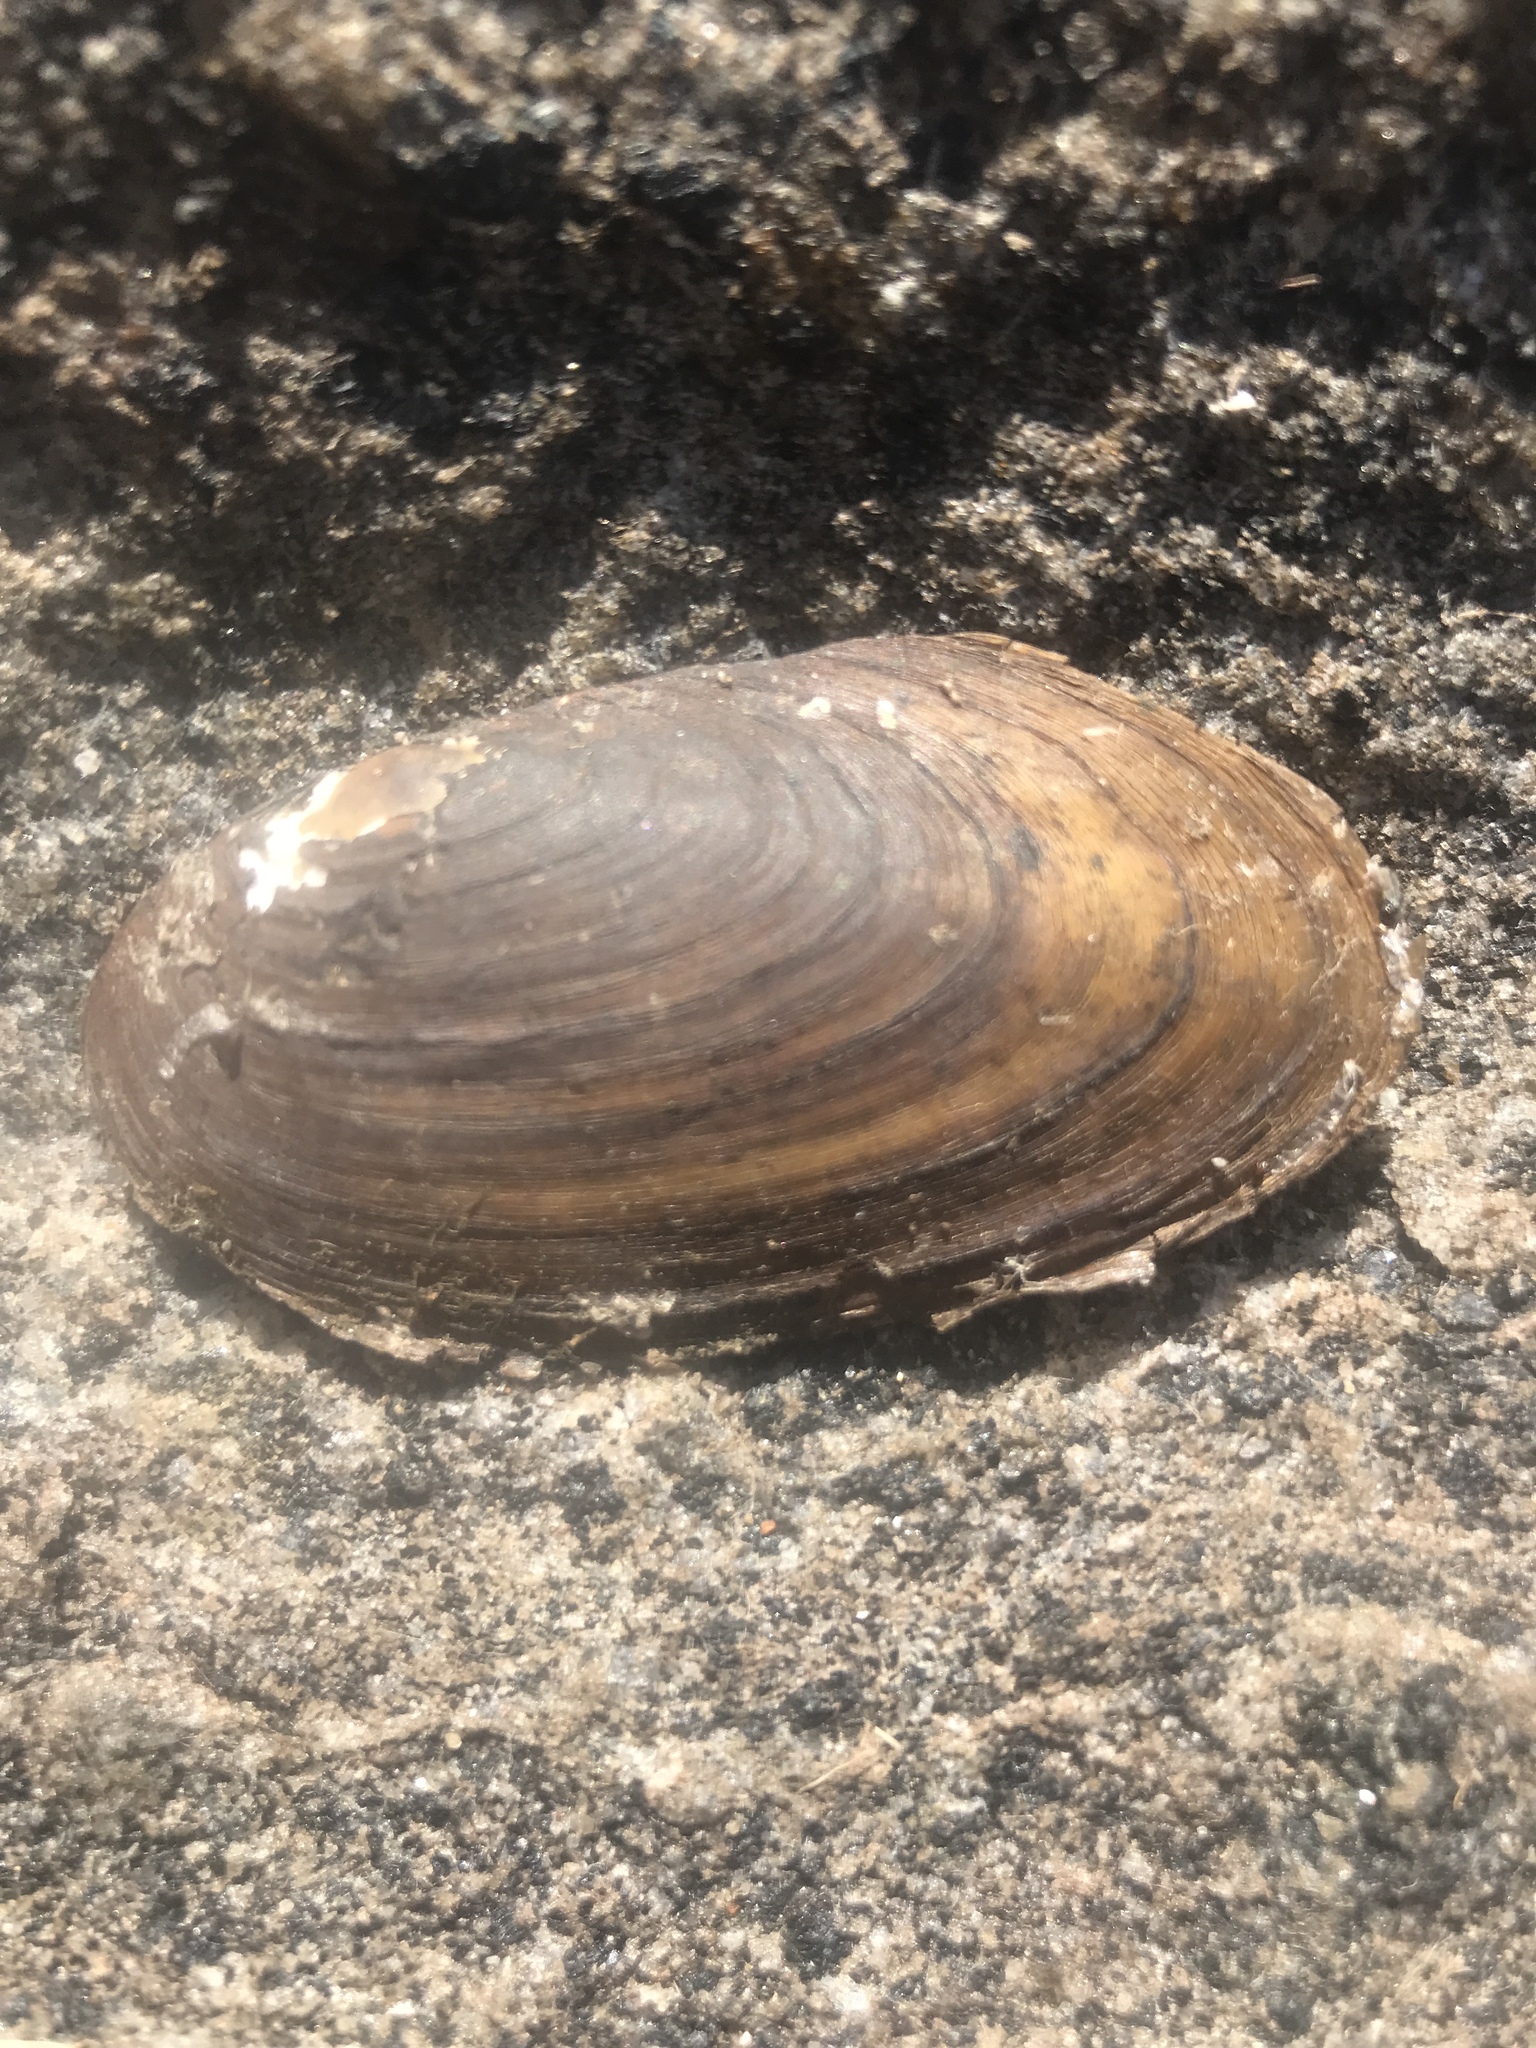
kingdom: Animalia
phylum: Mollusca
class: Bivalvia
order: Unionida
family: Unionidae
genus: Elliptio
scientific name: Elliptio complanata
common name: Eastern elliptio
